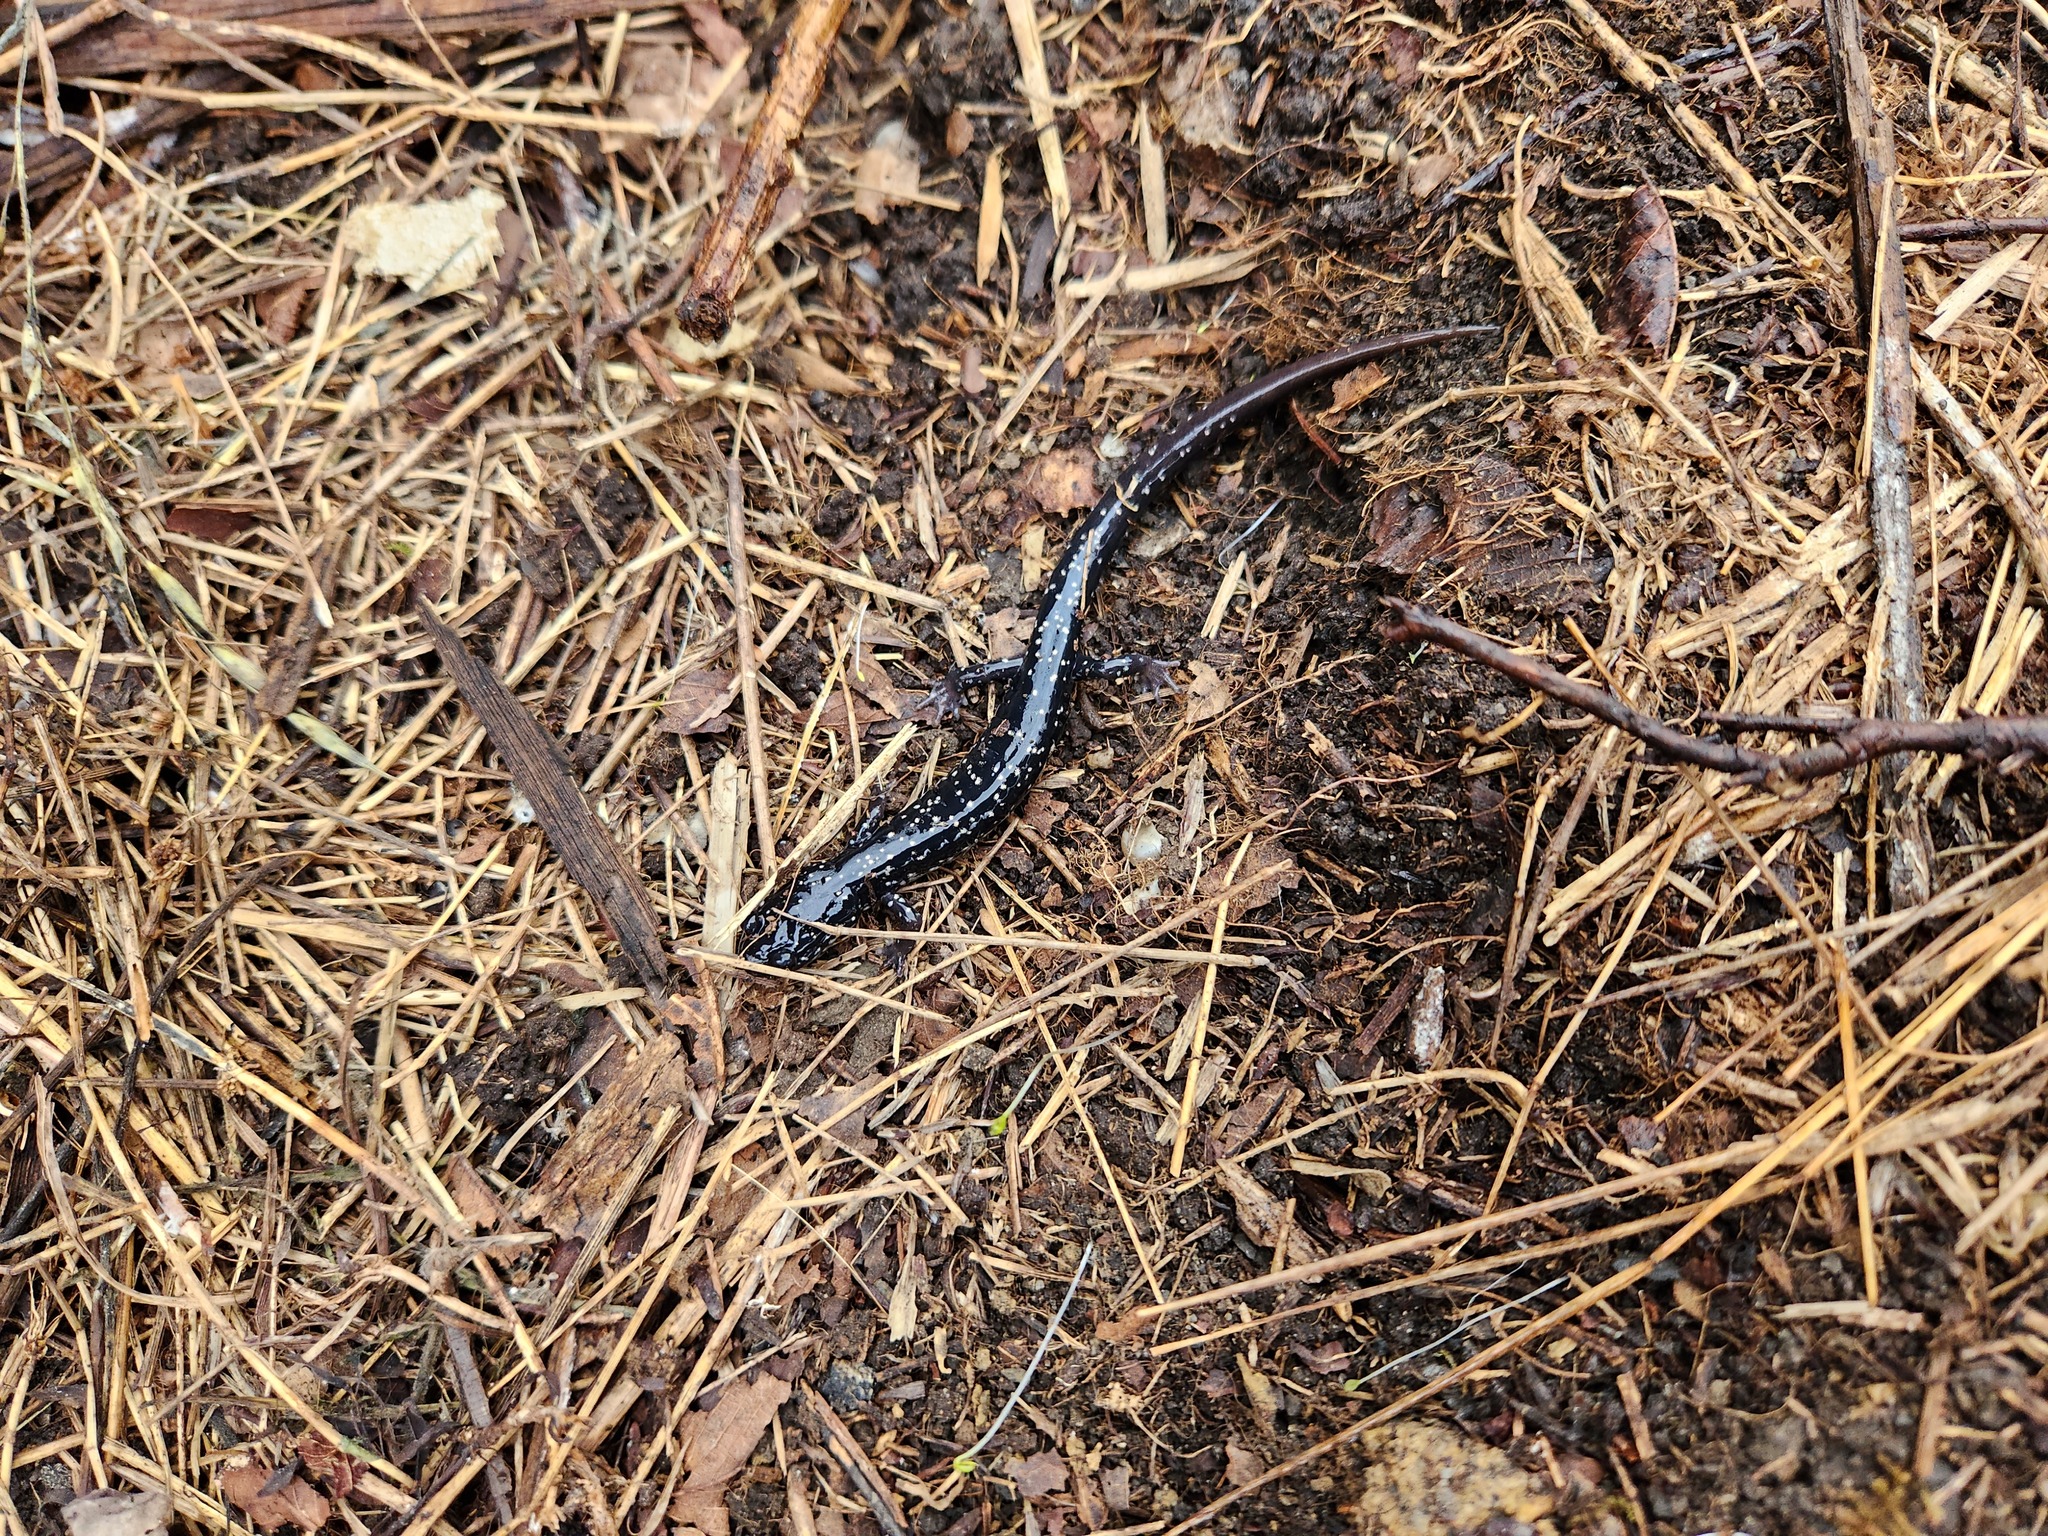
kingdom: Animalia
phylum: Chordata
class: Amphibia
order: Caudata
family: Plethodontidae
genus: Plethodon
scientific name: Plethodon glutinosus
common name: Northern slimy salamander
